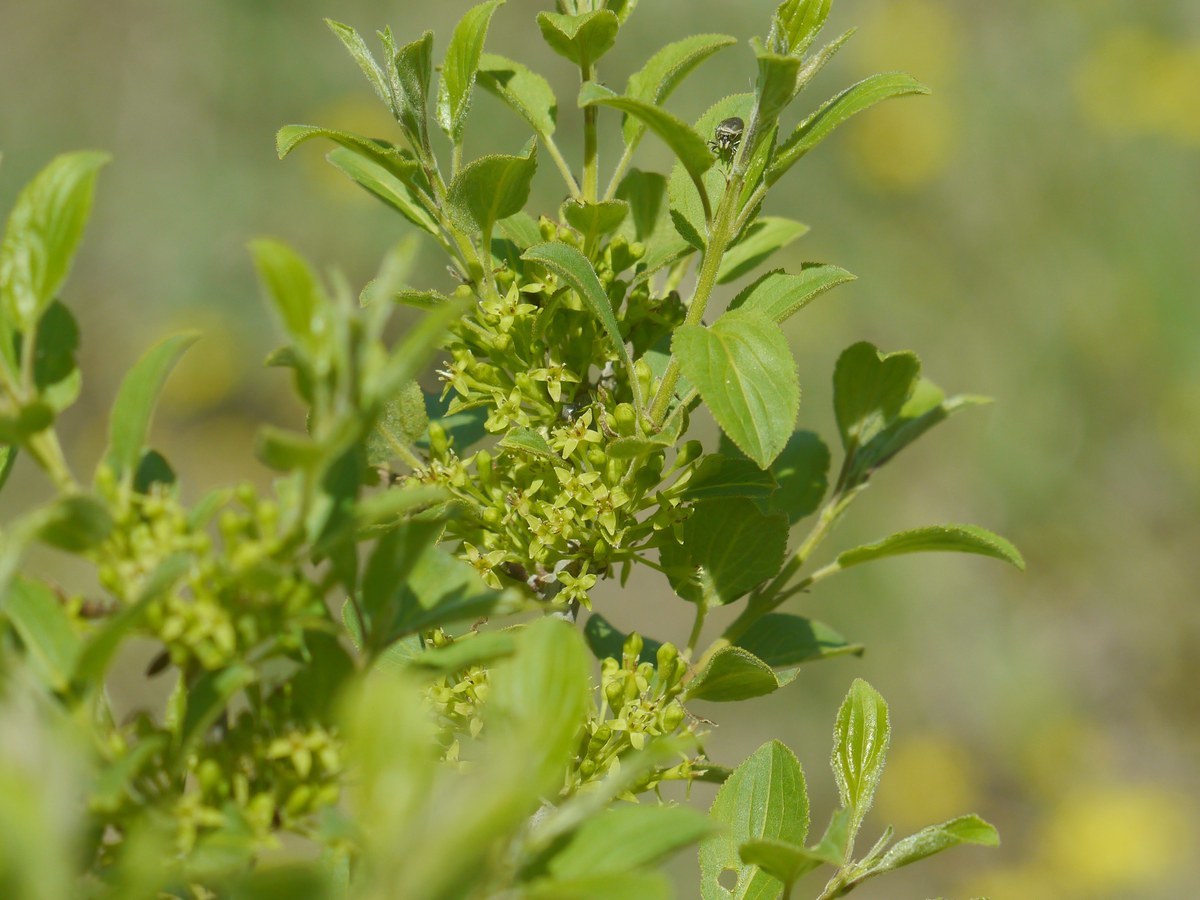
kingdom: Plantae
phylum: Tracheophyta
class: Magnoliopsida
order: Rosales
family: Rhamnaceae
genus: Rhamnus
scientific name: Rhamnus cathartica
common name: Common buckthorn
